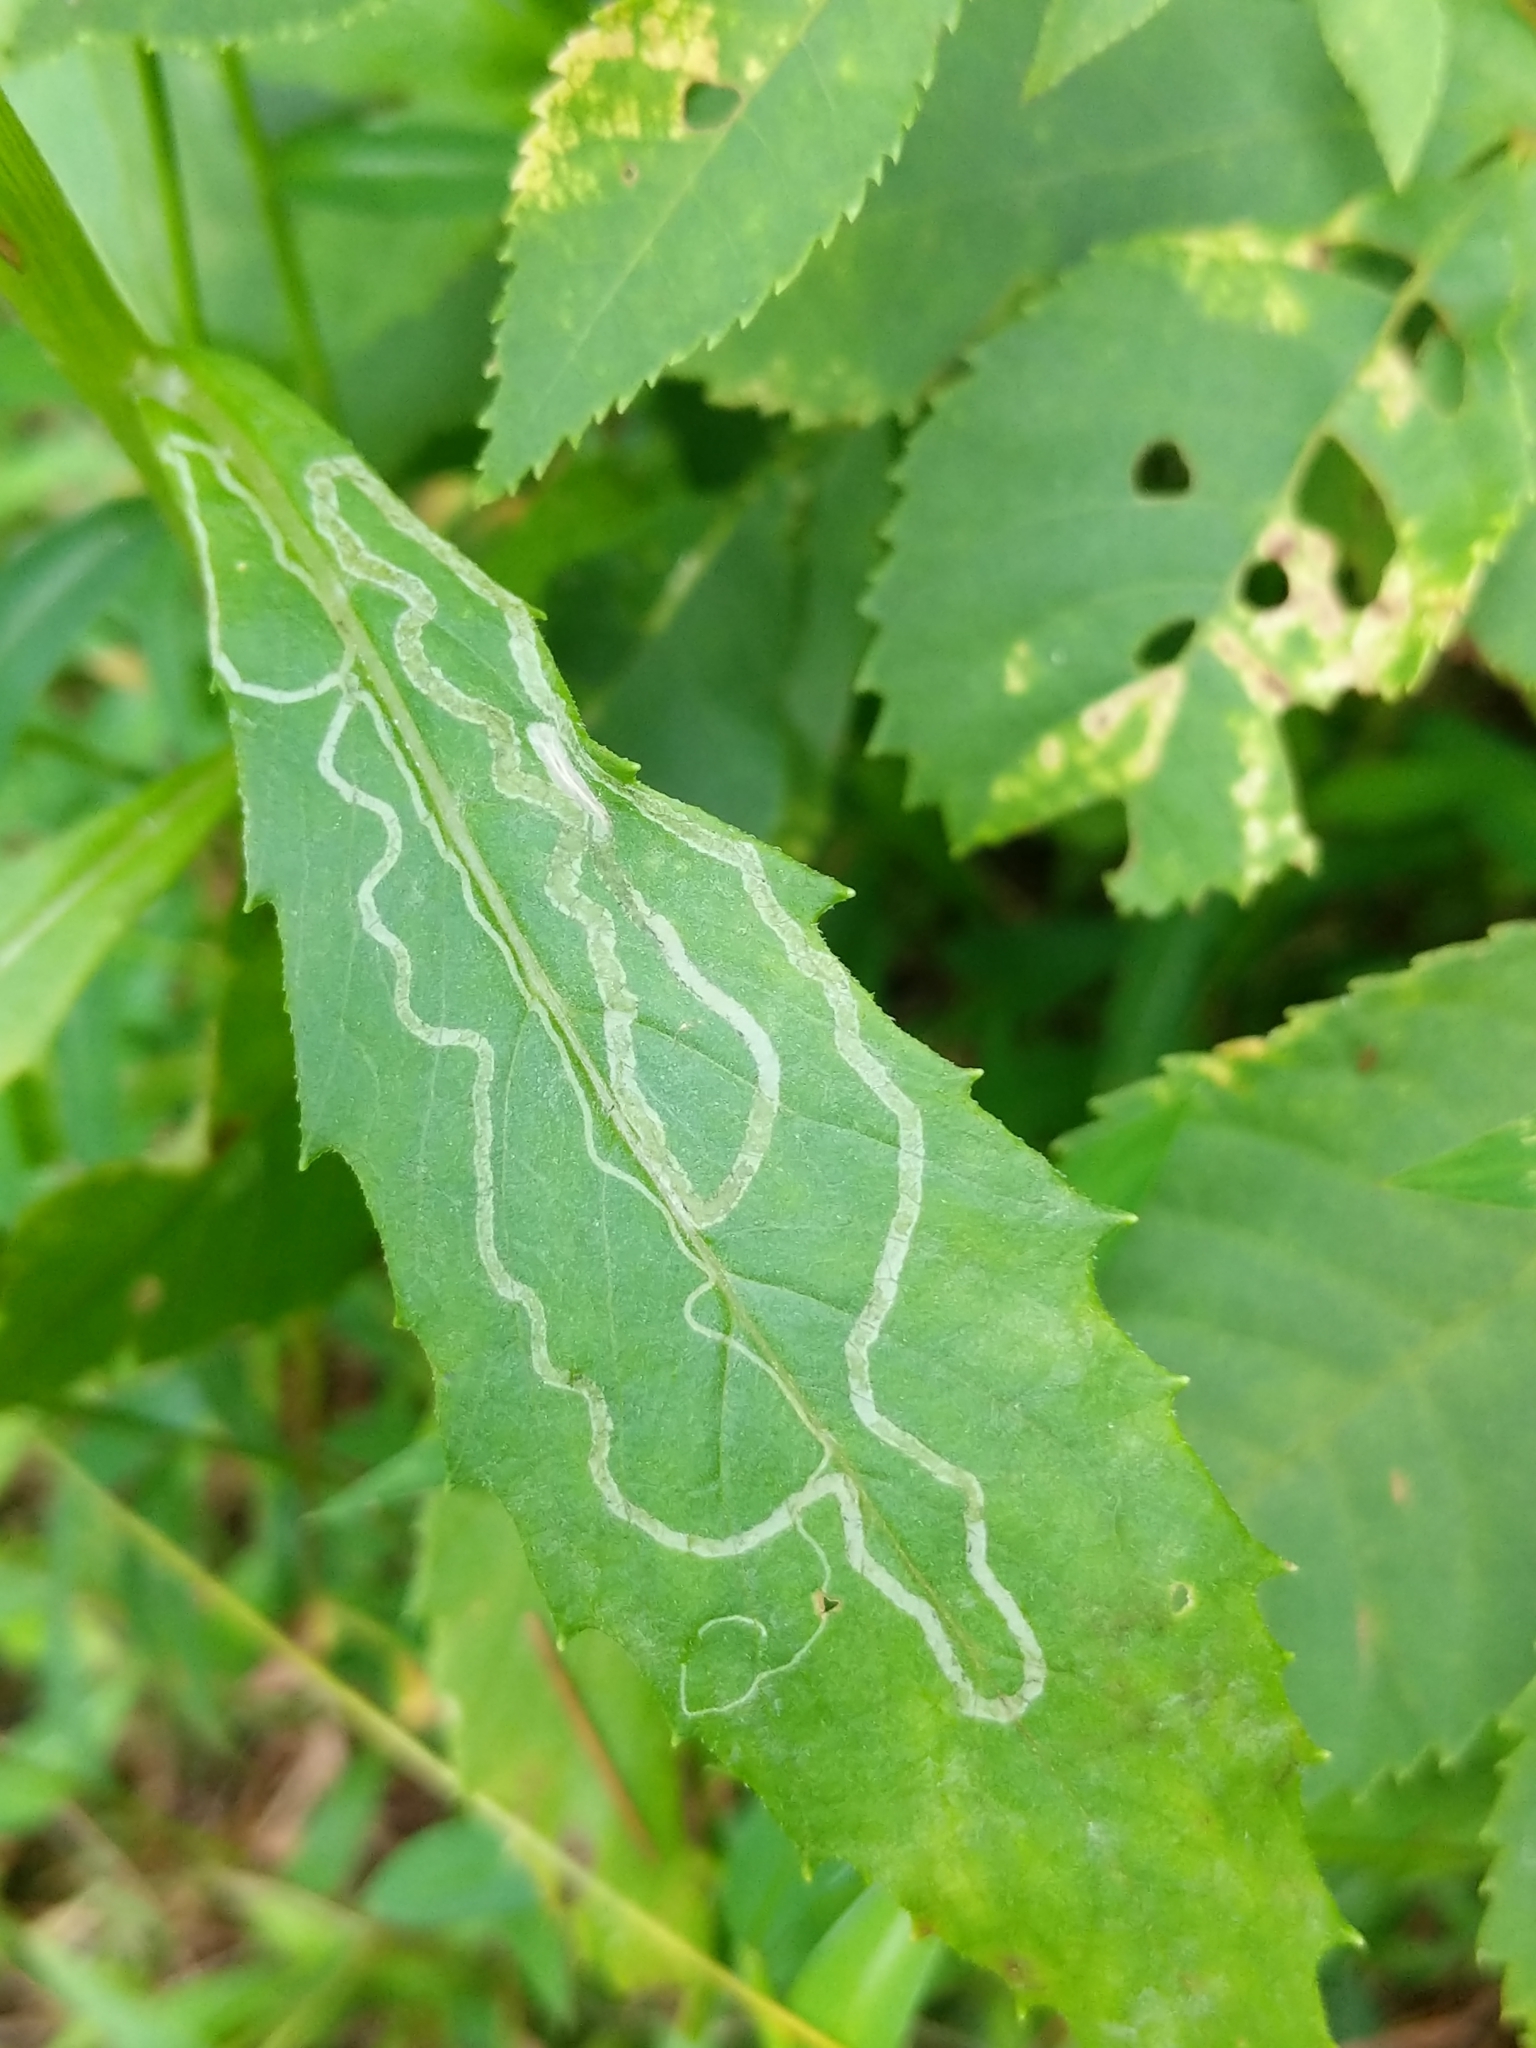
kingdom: Animalia
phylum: Arthropoda
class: Insecta
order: Lepidoptera
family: Gracillariidae
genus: Phyllocnistis
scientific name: Phyllocnistis insignis
